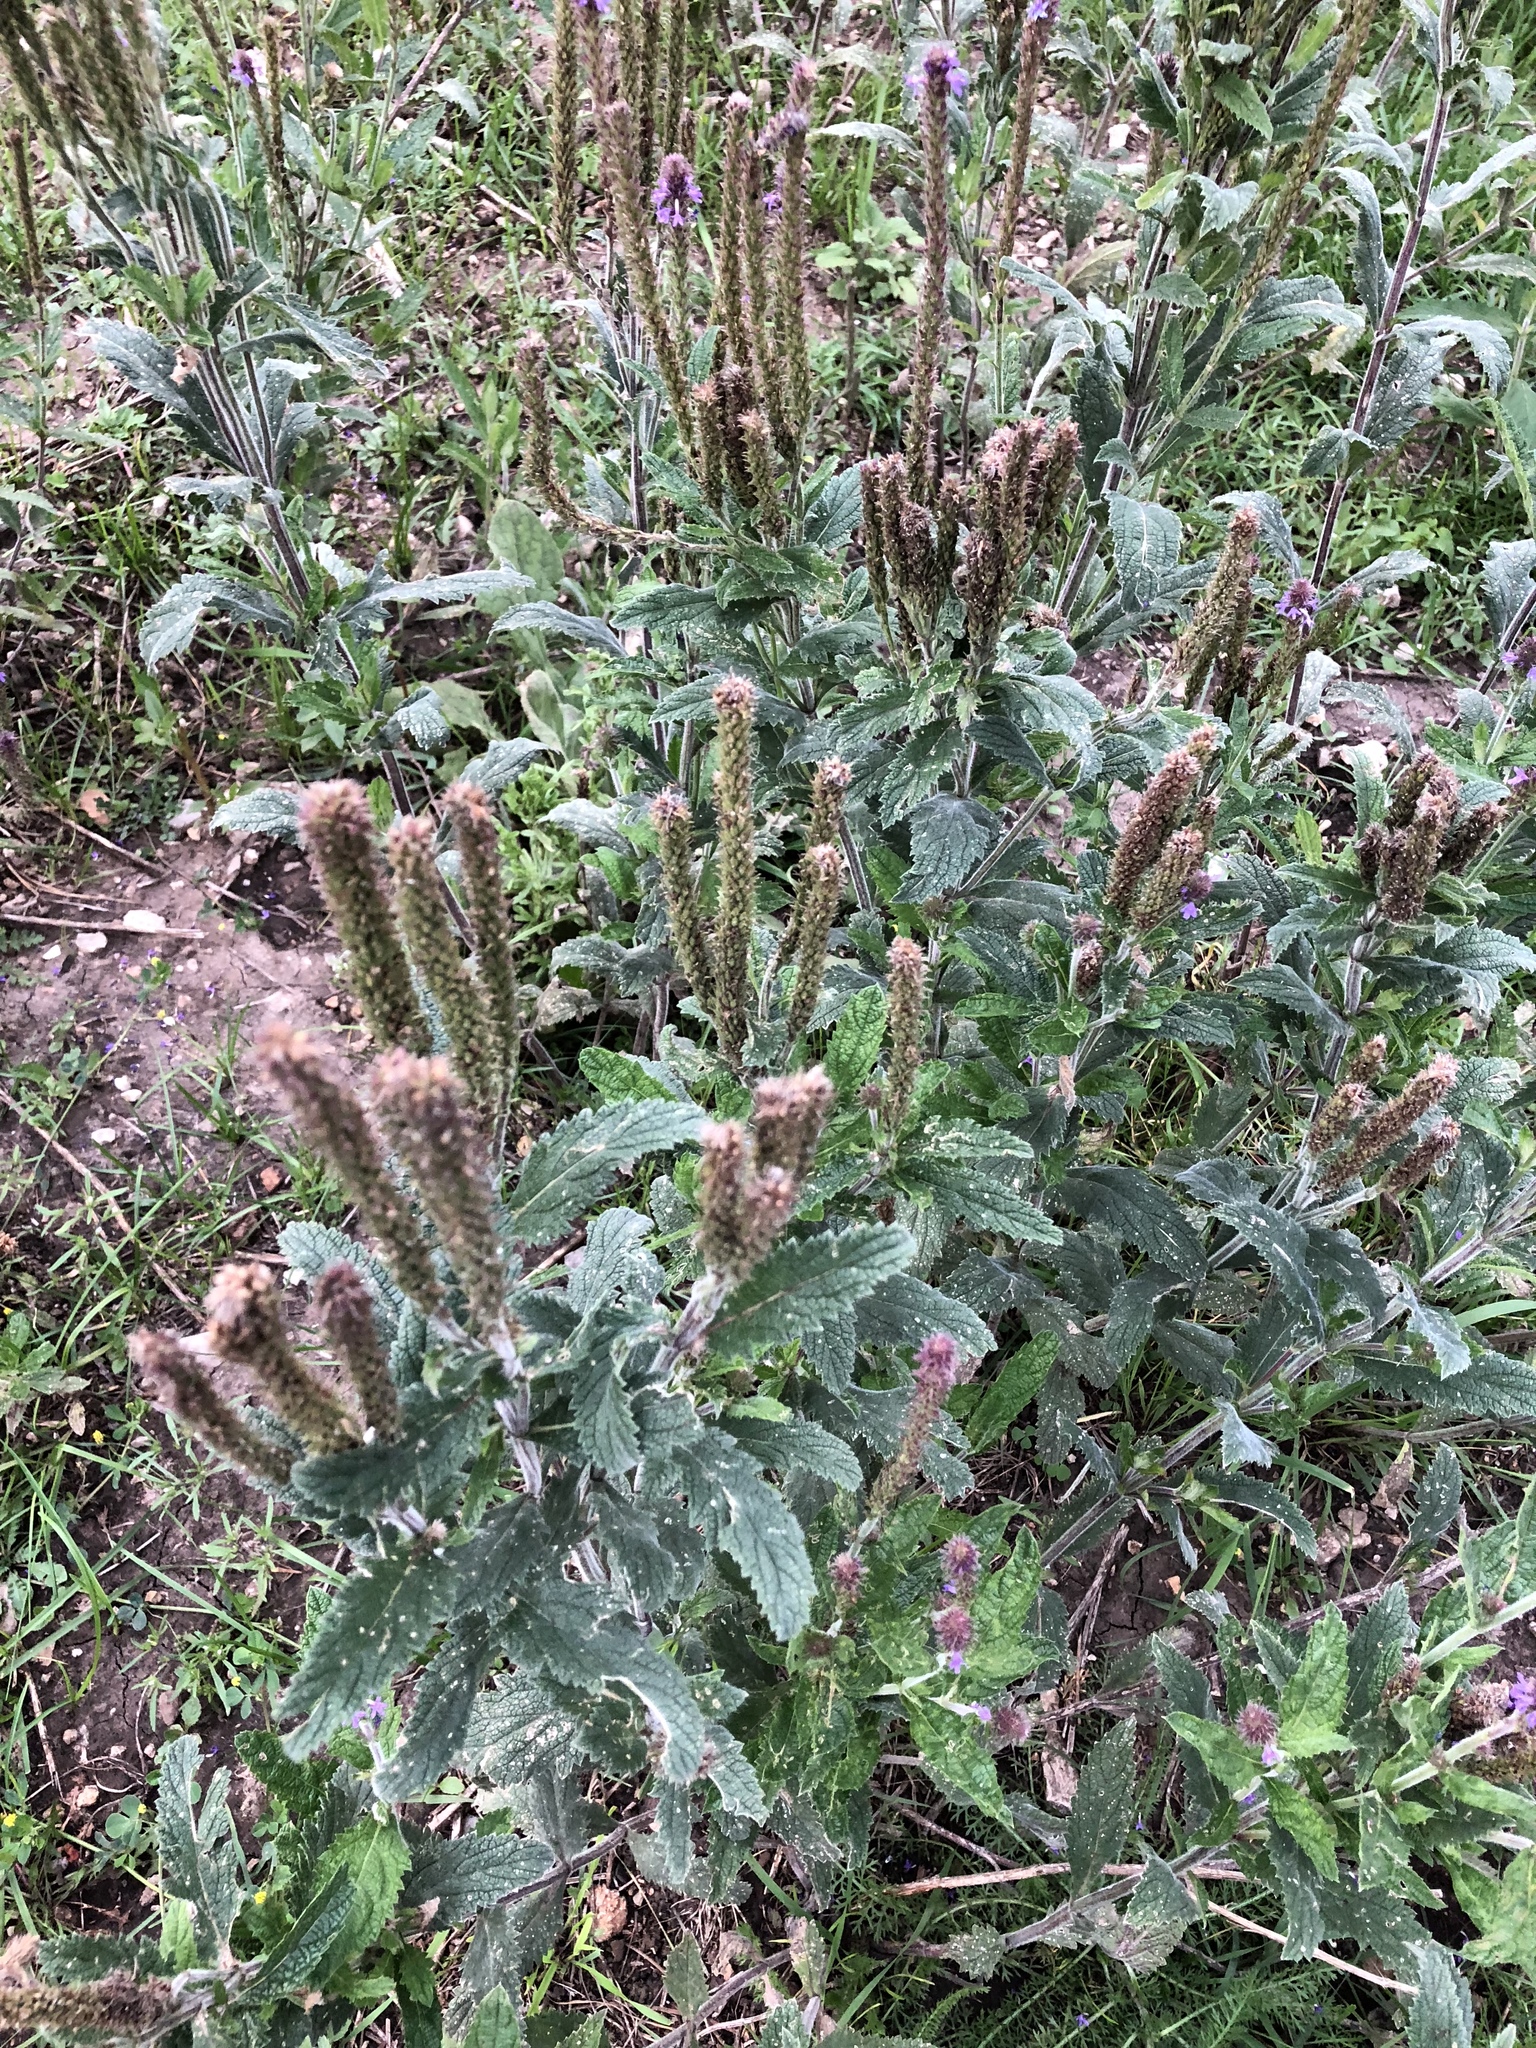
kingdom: Plantae
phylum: Tracheophyta
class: Magnoliopsida
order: Lamiales
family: Verbenaceae
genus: Verbena
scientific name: Verbena macdougalii
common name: New mexico vervain
